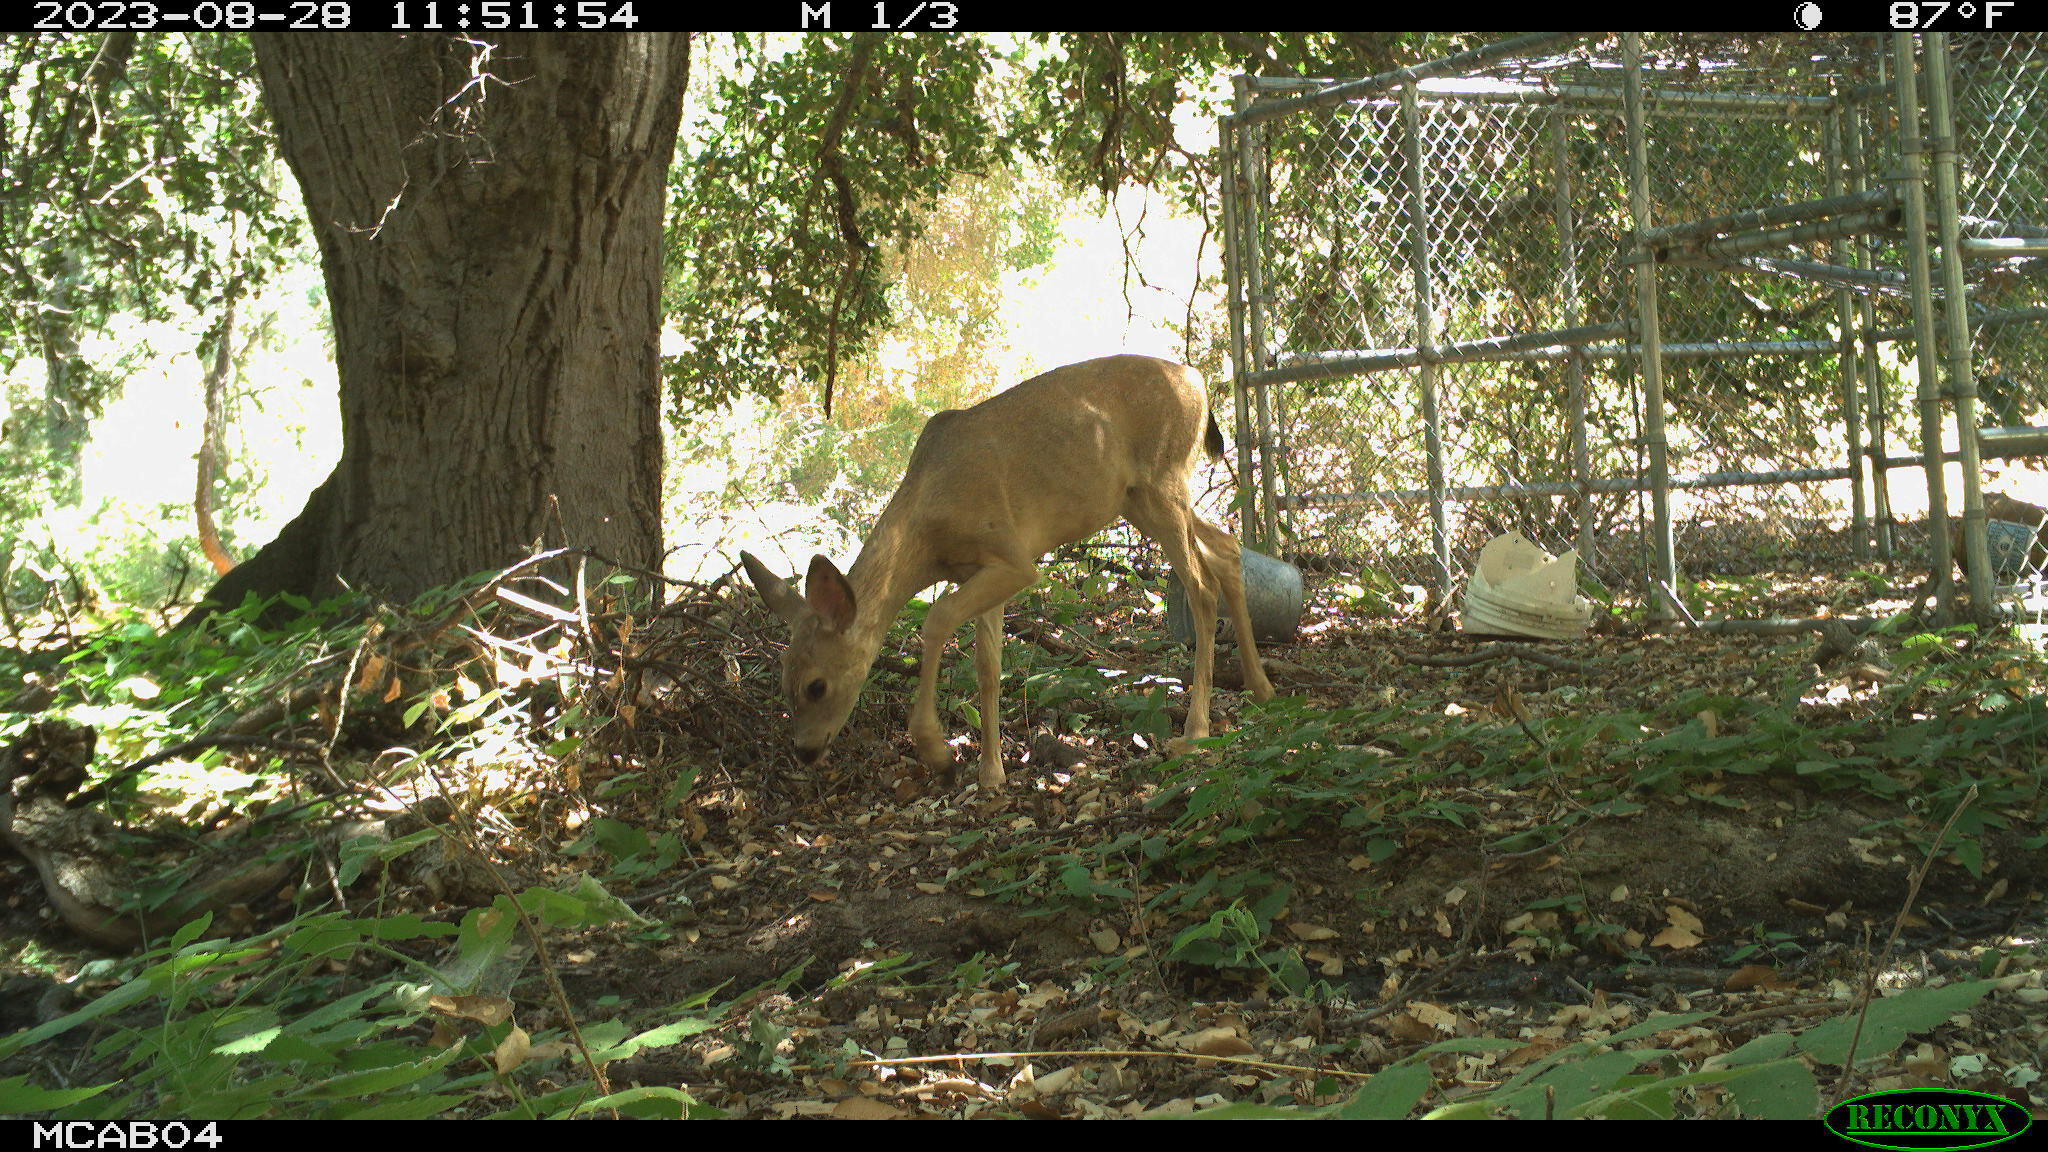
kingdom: Animalia
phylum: Chordata
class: Mammalia
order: Artiodactyla
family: Cervidae
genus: Odocoileus
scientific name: Odocoileus hemionus
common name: Mule deer
